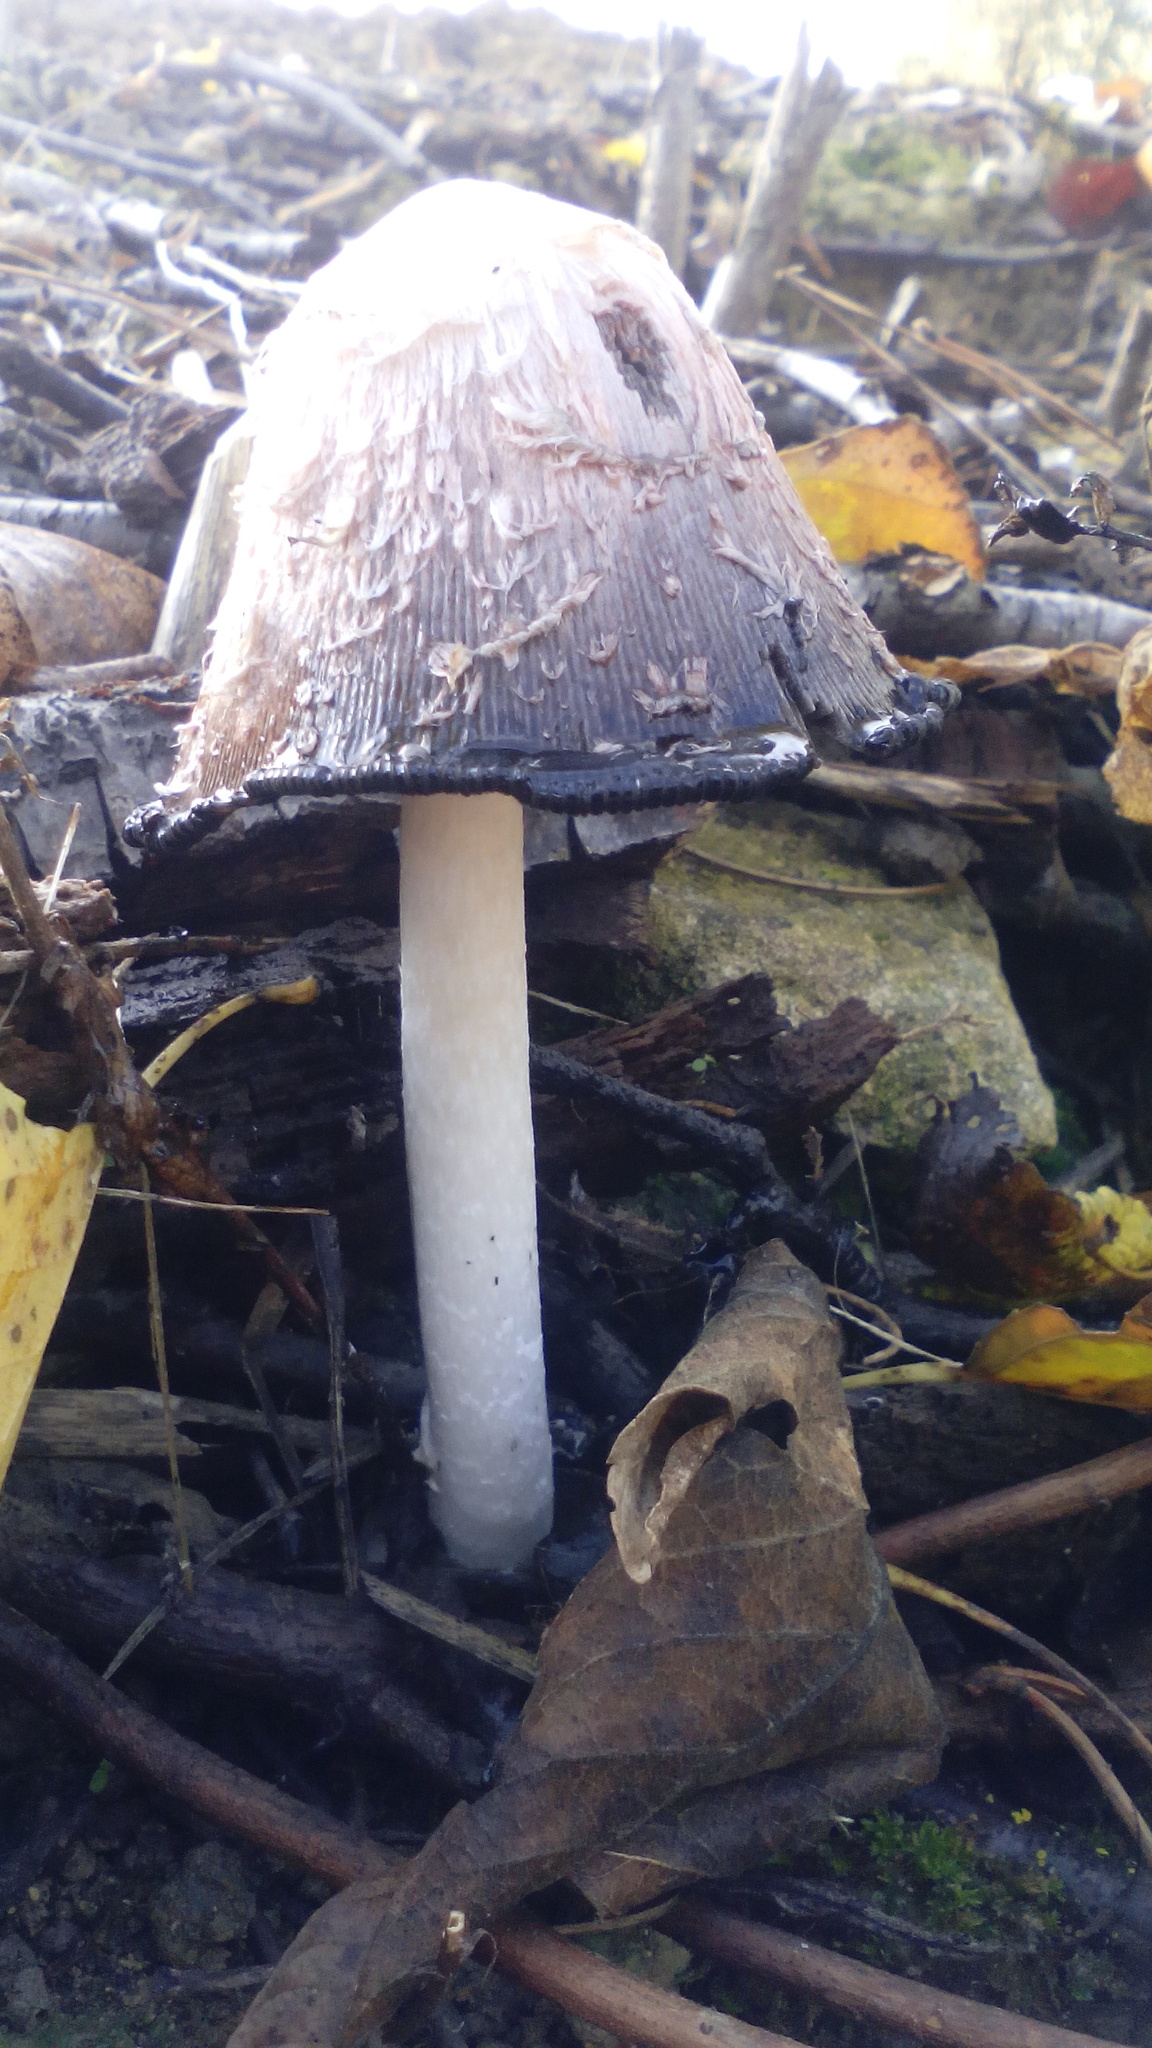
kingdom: Fungi
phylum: Basidiomycota
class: Agaricomycetes
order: Agaricales
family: Agaricaceae
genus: Coprinus
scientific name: Coprinus comatus
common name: Lawyer's wig
